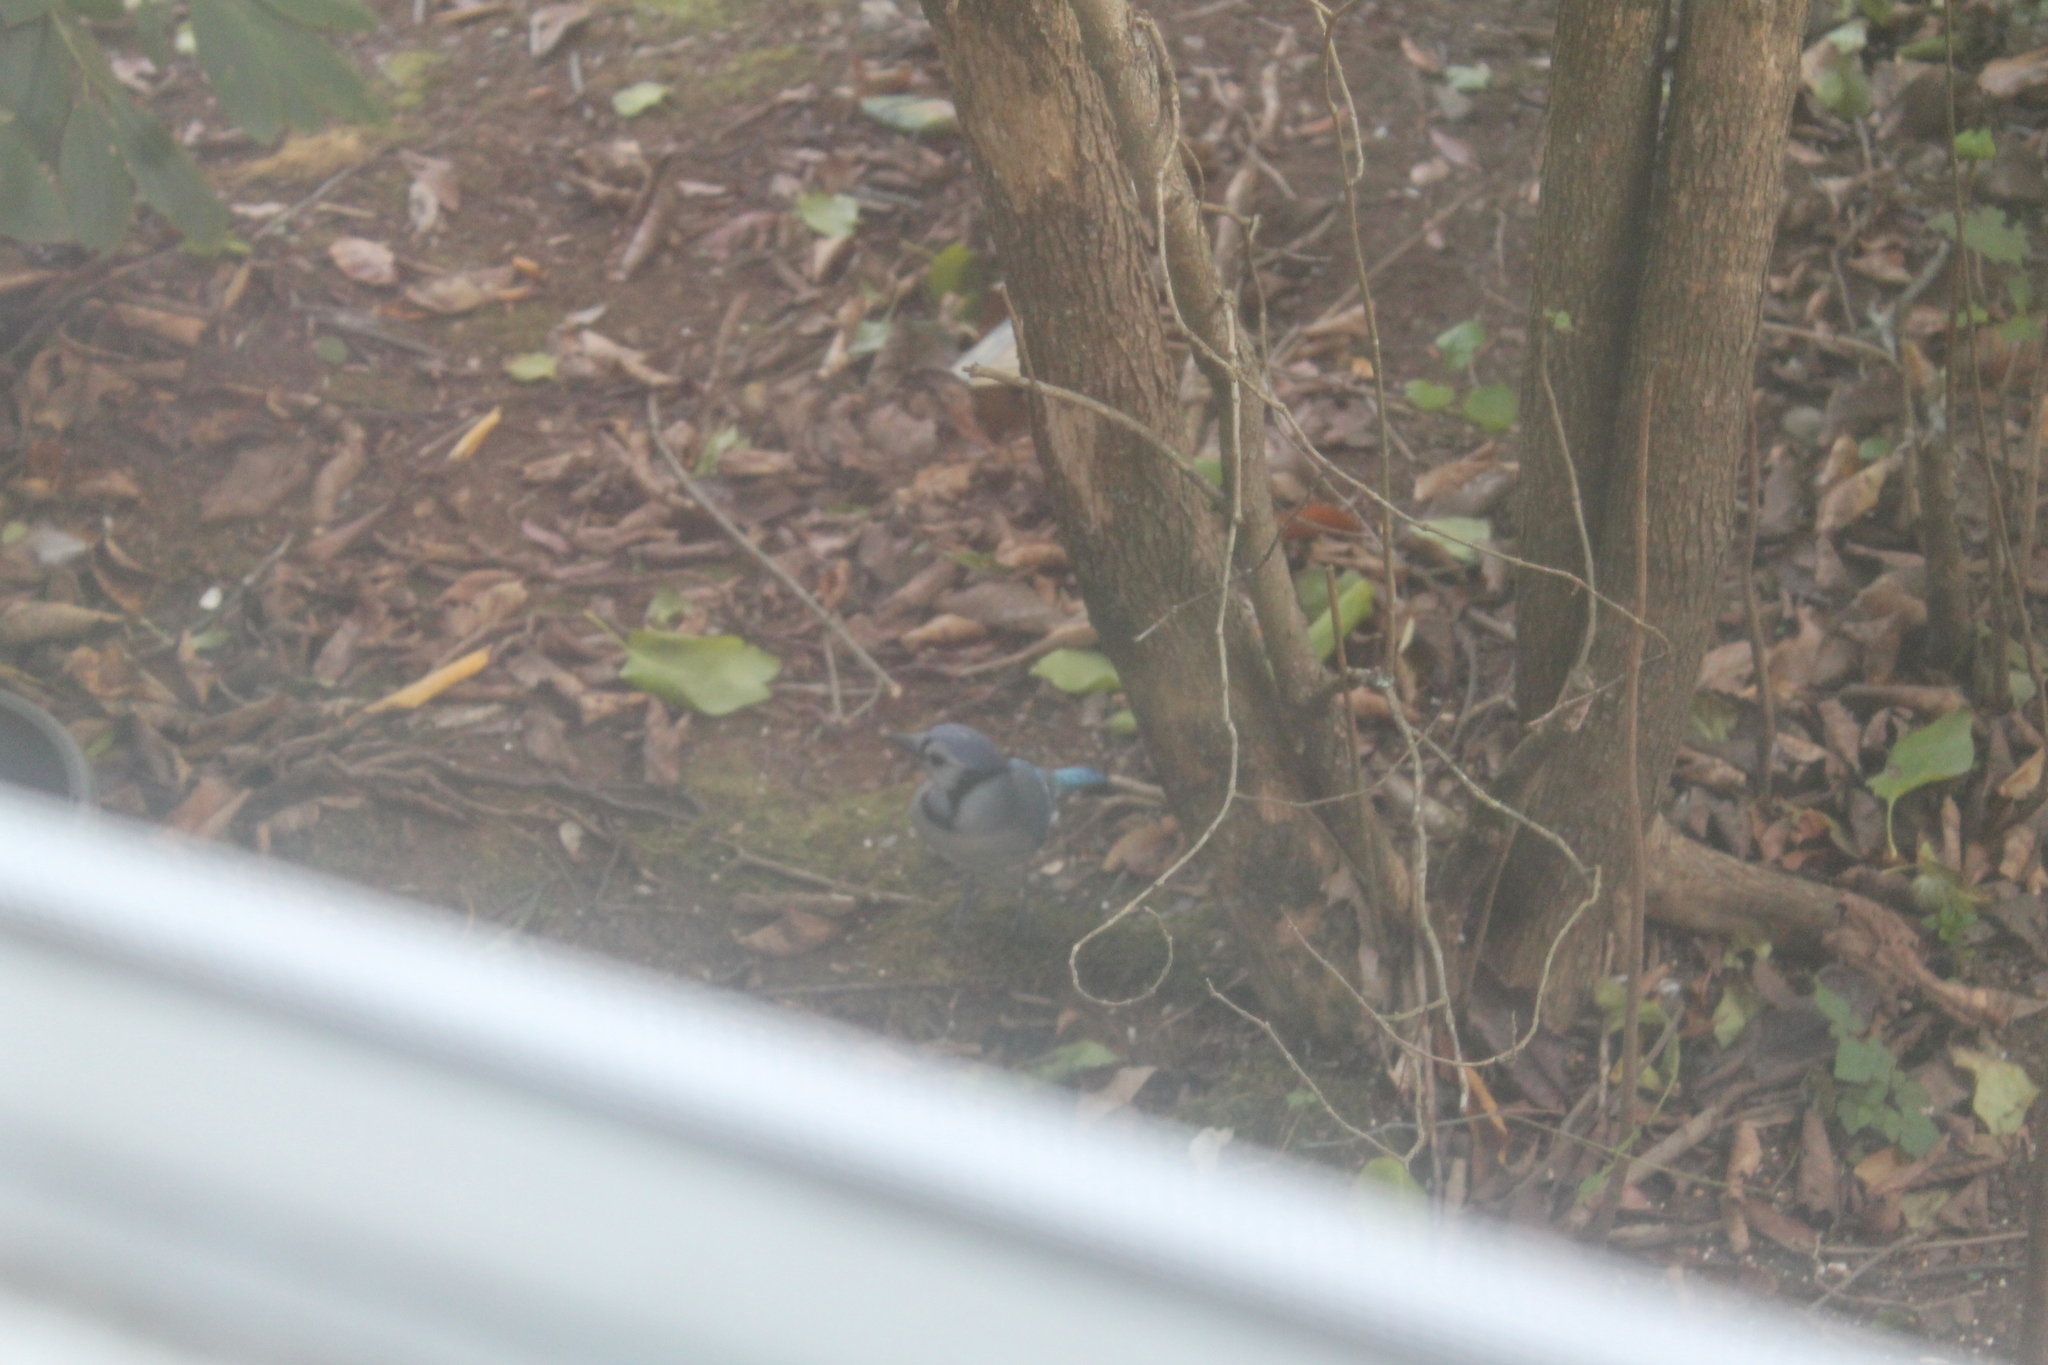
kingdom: Animalia
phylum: Chordata
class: Aves
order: Passeriformes
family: Corvidae
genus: Cyanocitta
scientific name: Cyanocitta cristata
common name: Blue jay
